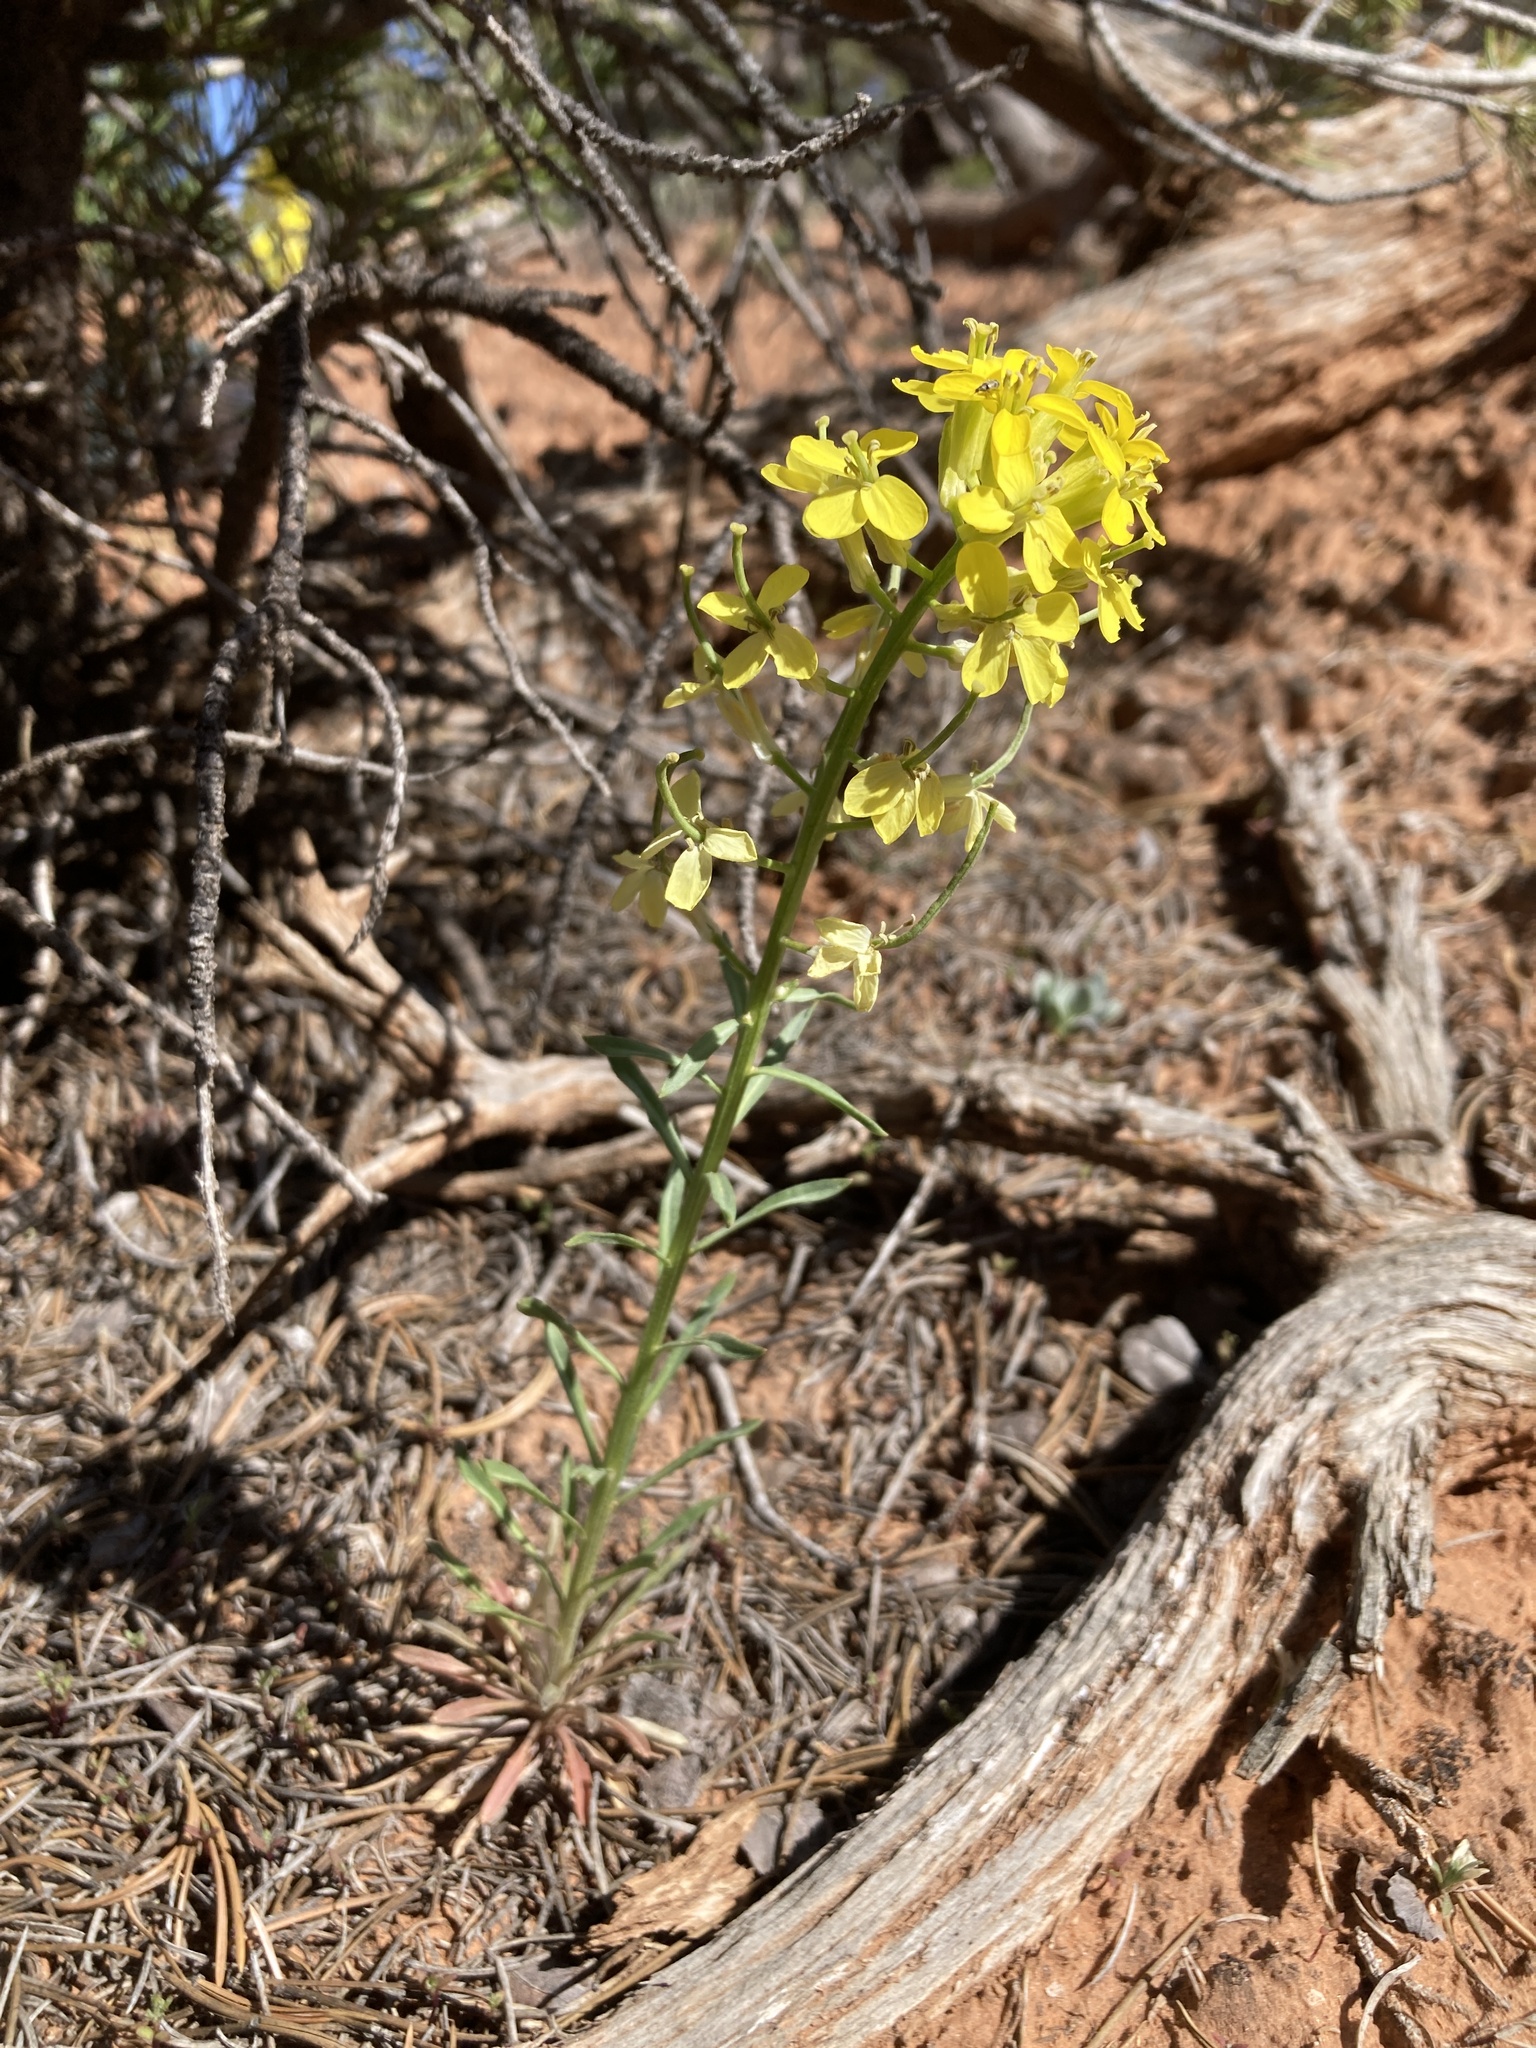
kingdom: Plantae
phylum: Tracheophyta
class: Magnoliopsida
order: Brassicales
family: Brassicaceae
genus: Erysimum
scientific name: Erysimum capitatum
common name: Western wallflower
